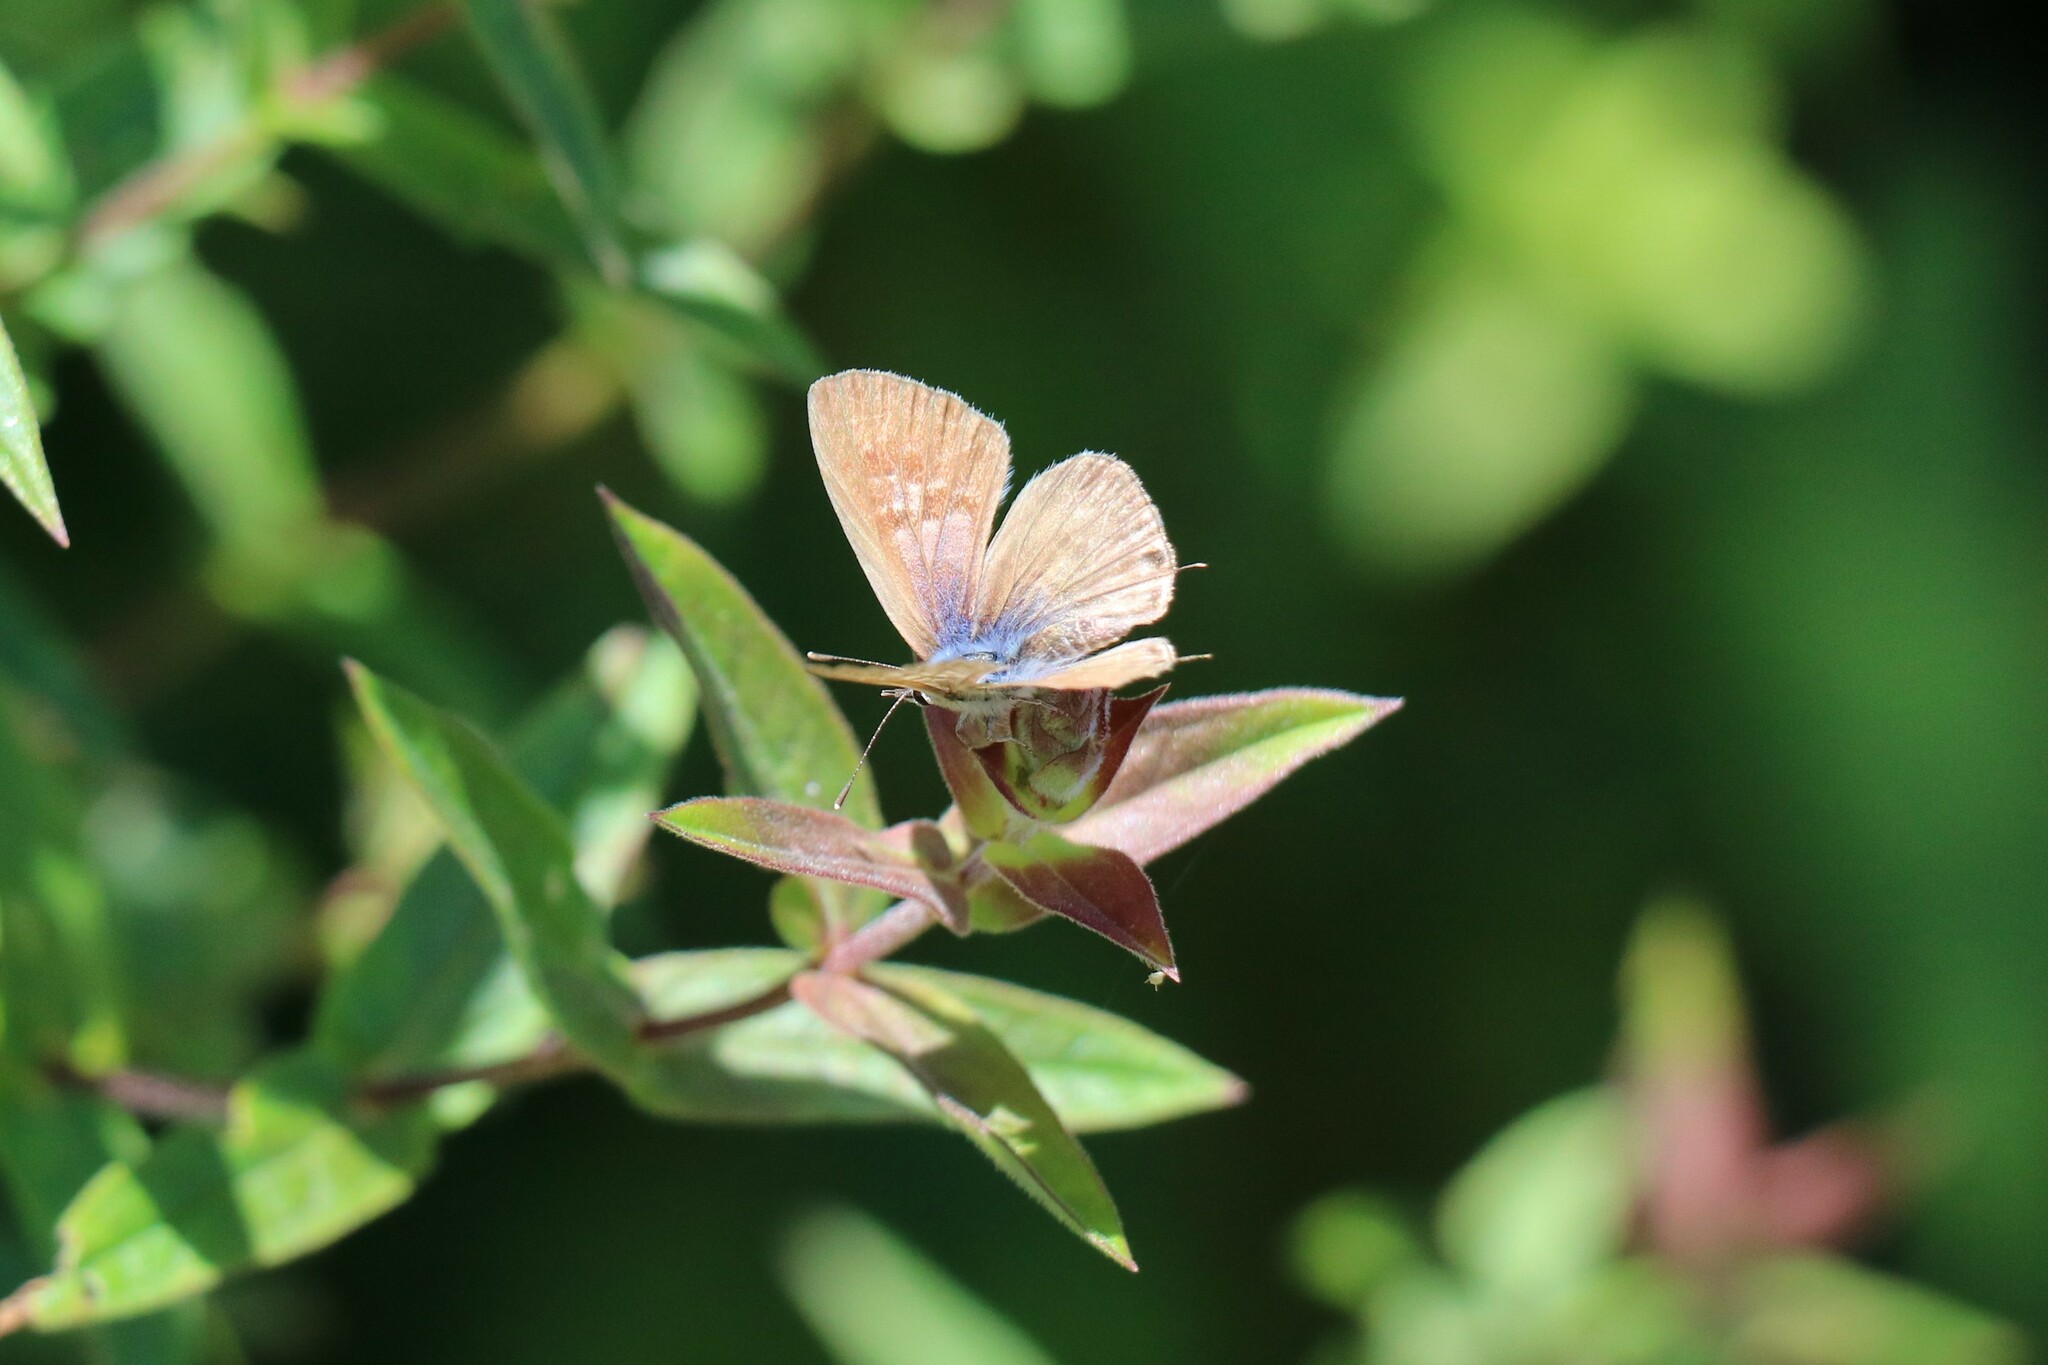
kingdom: Animalia
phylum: Arthropoda
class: Insecta
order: Lepidoptera
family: Lycaenidae
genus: Leptotes
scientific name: Leptotes pirithous
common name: Lang's short-tailed blue
